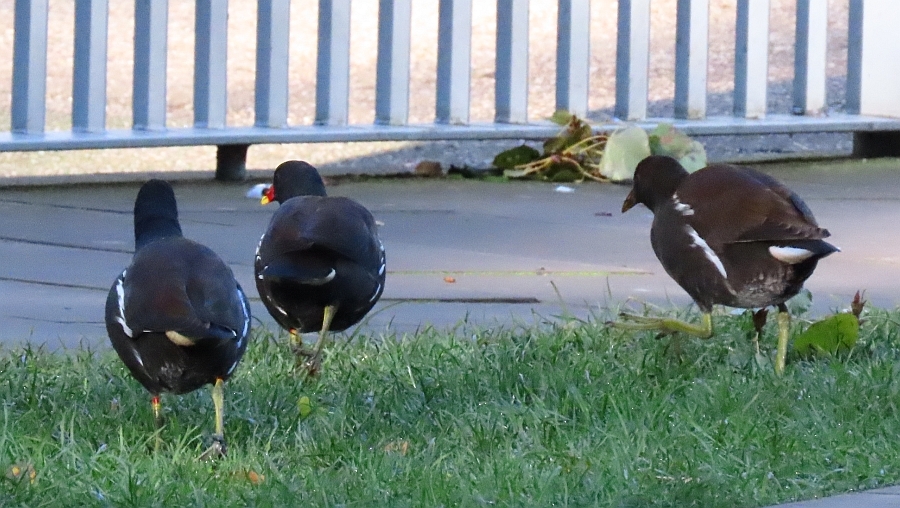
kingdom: Animalia
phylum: Chordata
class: Aves
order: Gruiformes
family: Rallidae
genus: Gallinula
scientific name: Gallinula chloropus
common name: Common moorhen
